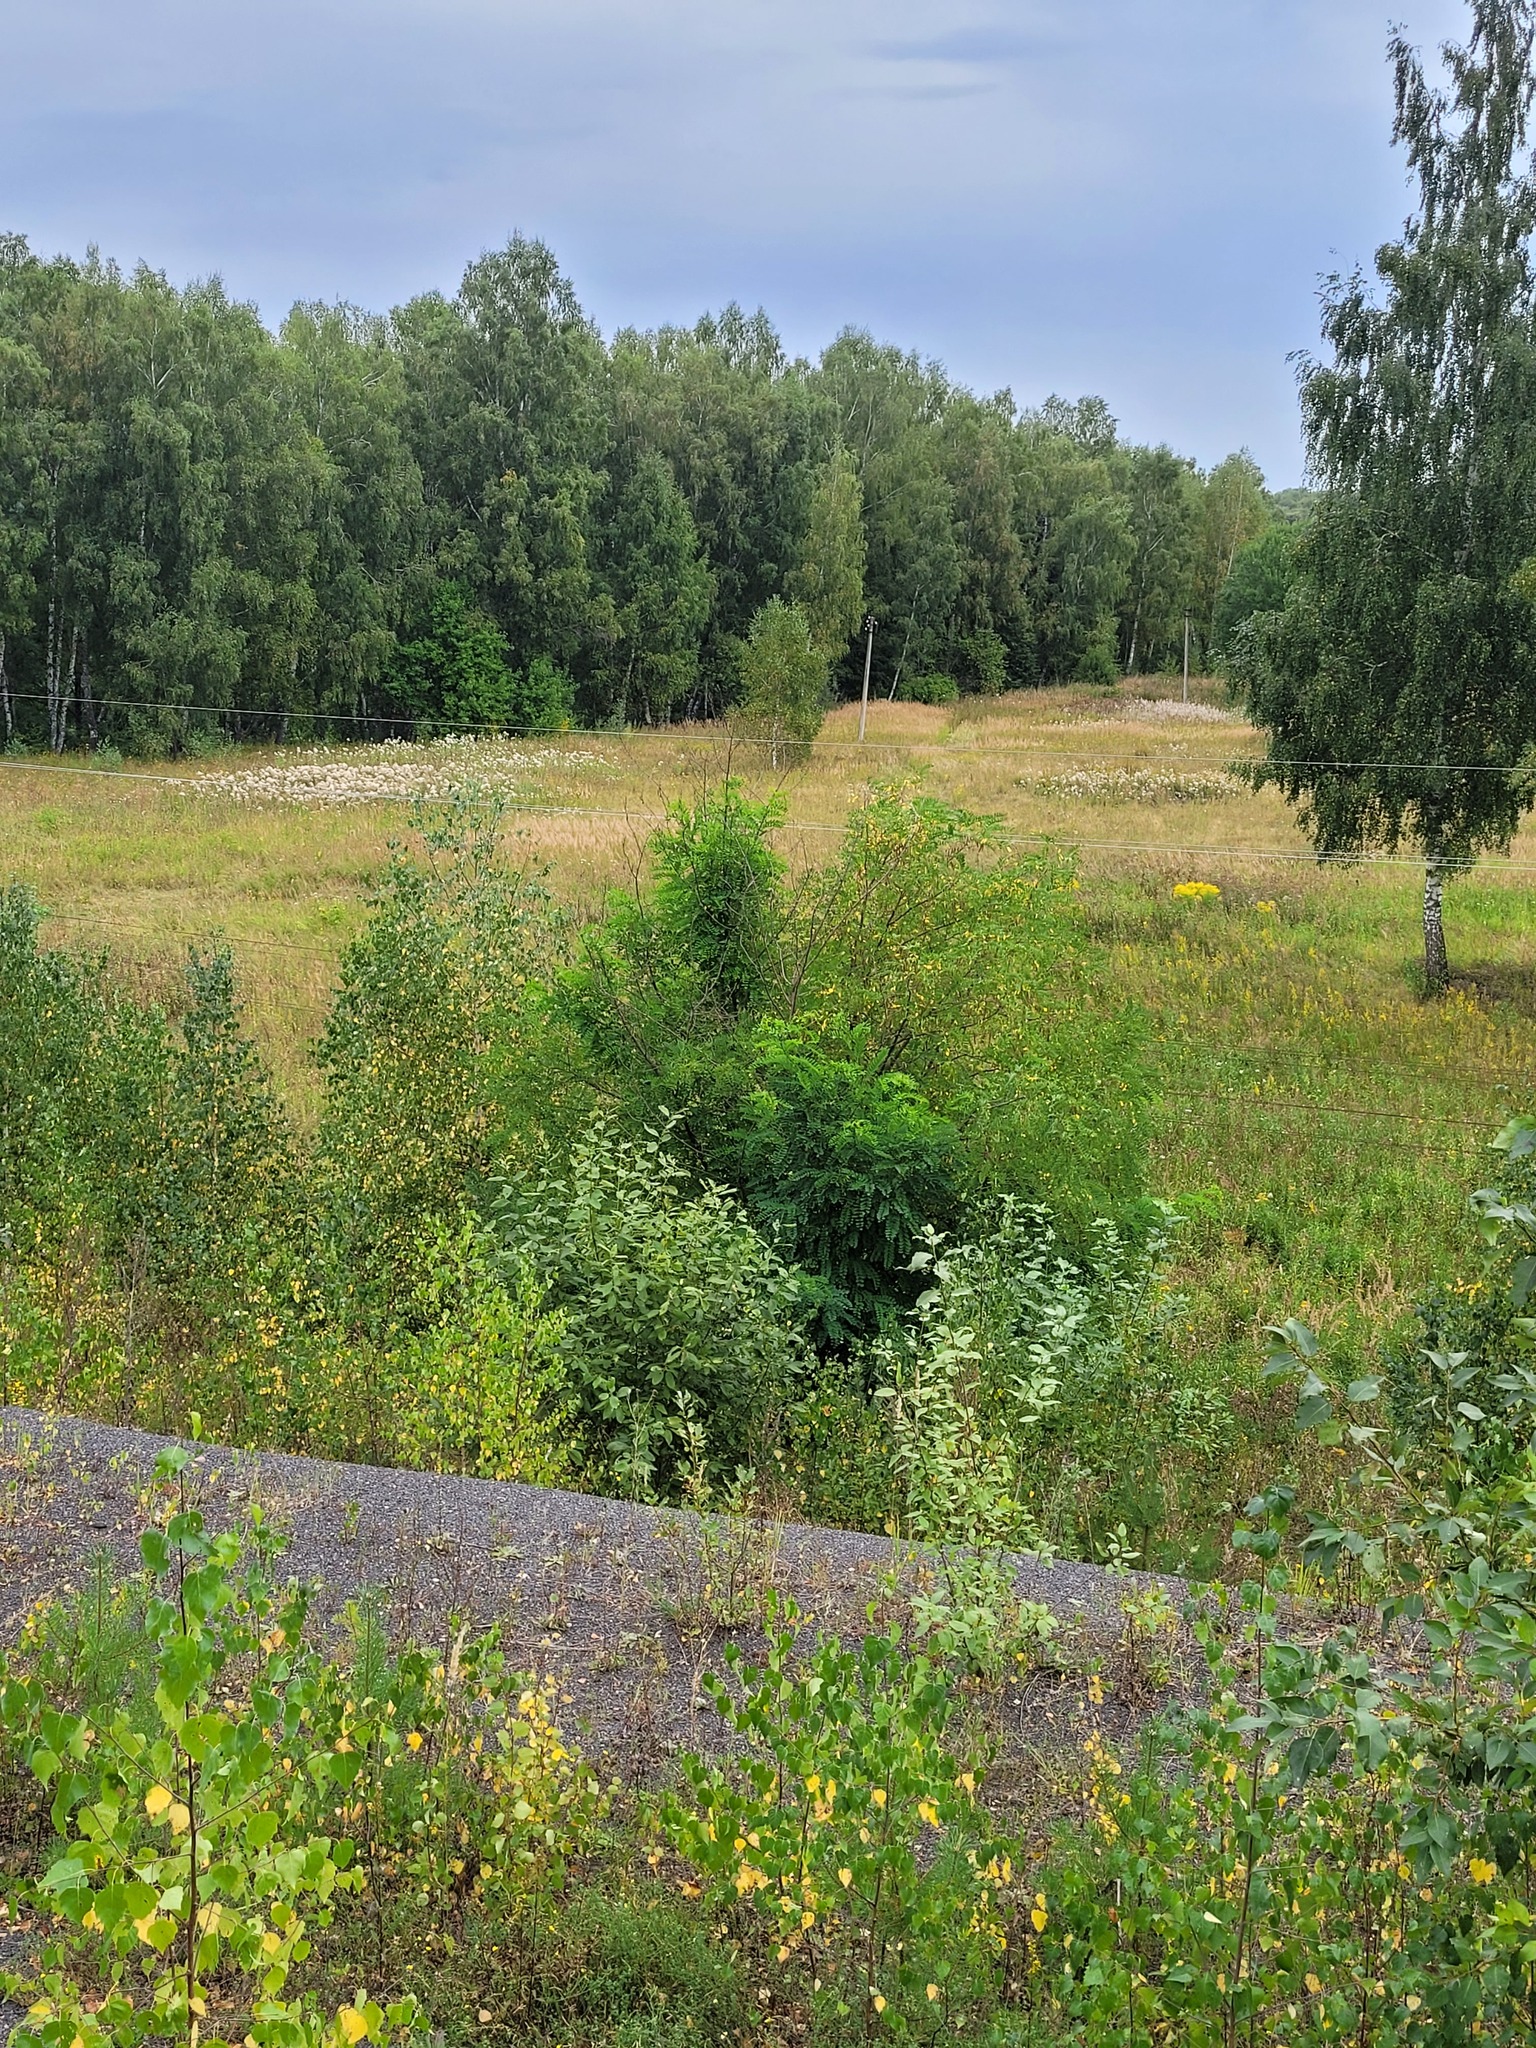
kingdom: Plantae
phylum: Tracheophyta
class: Magnoliopsida
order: Fabales
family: Fabaceae
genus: Robinia
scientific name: Robinia pseudoacacia
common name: Black locust
